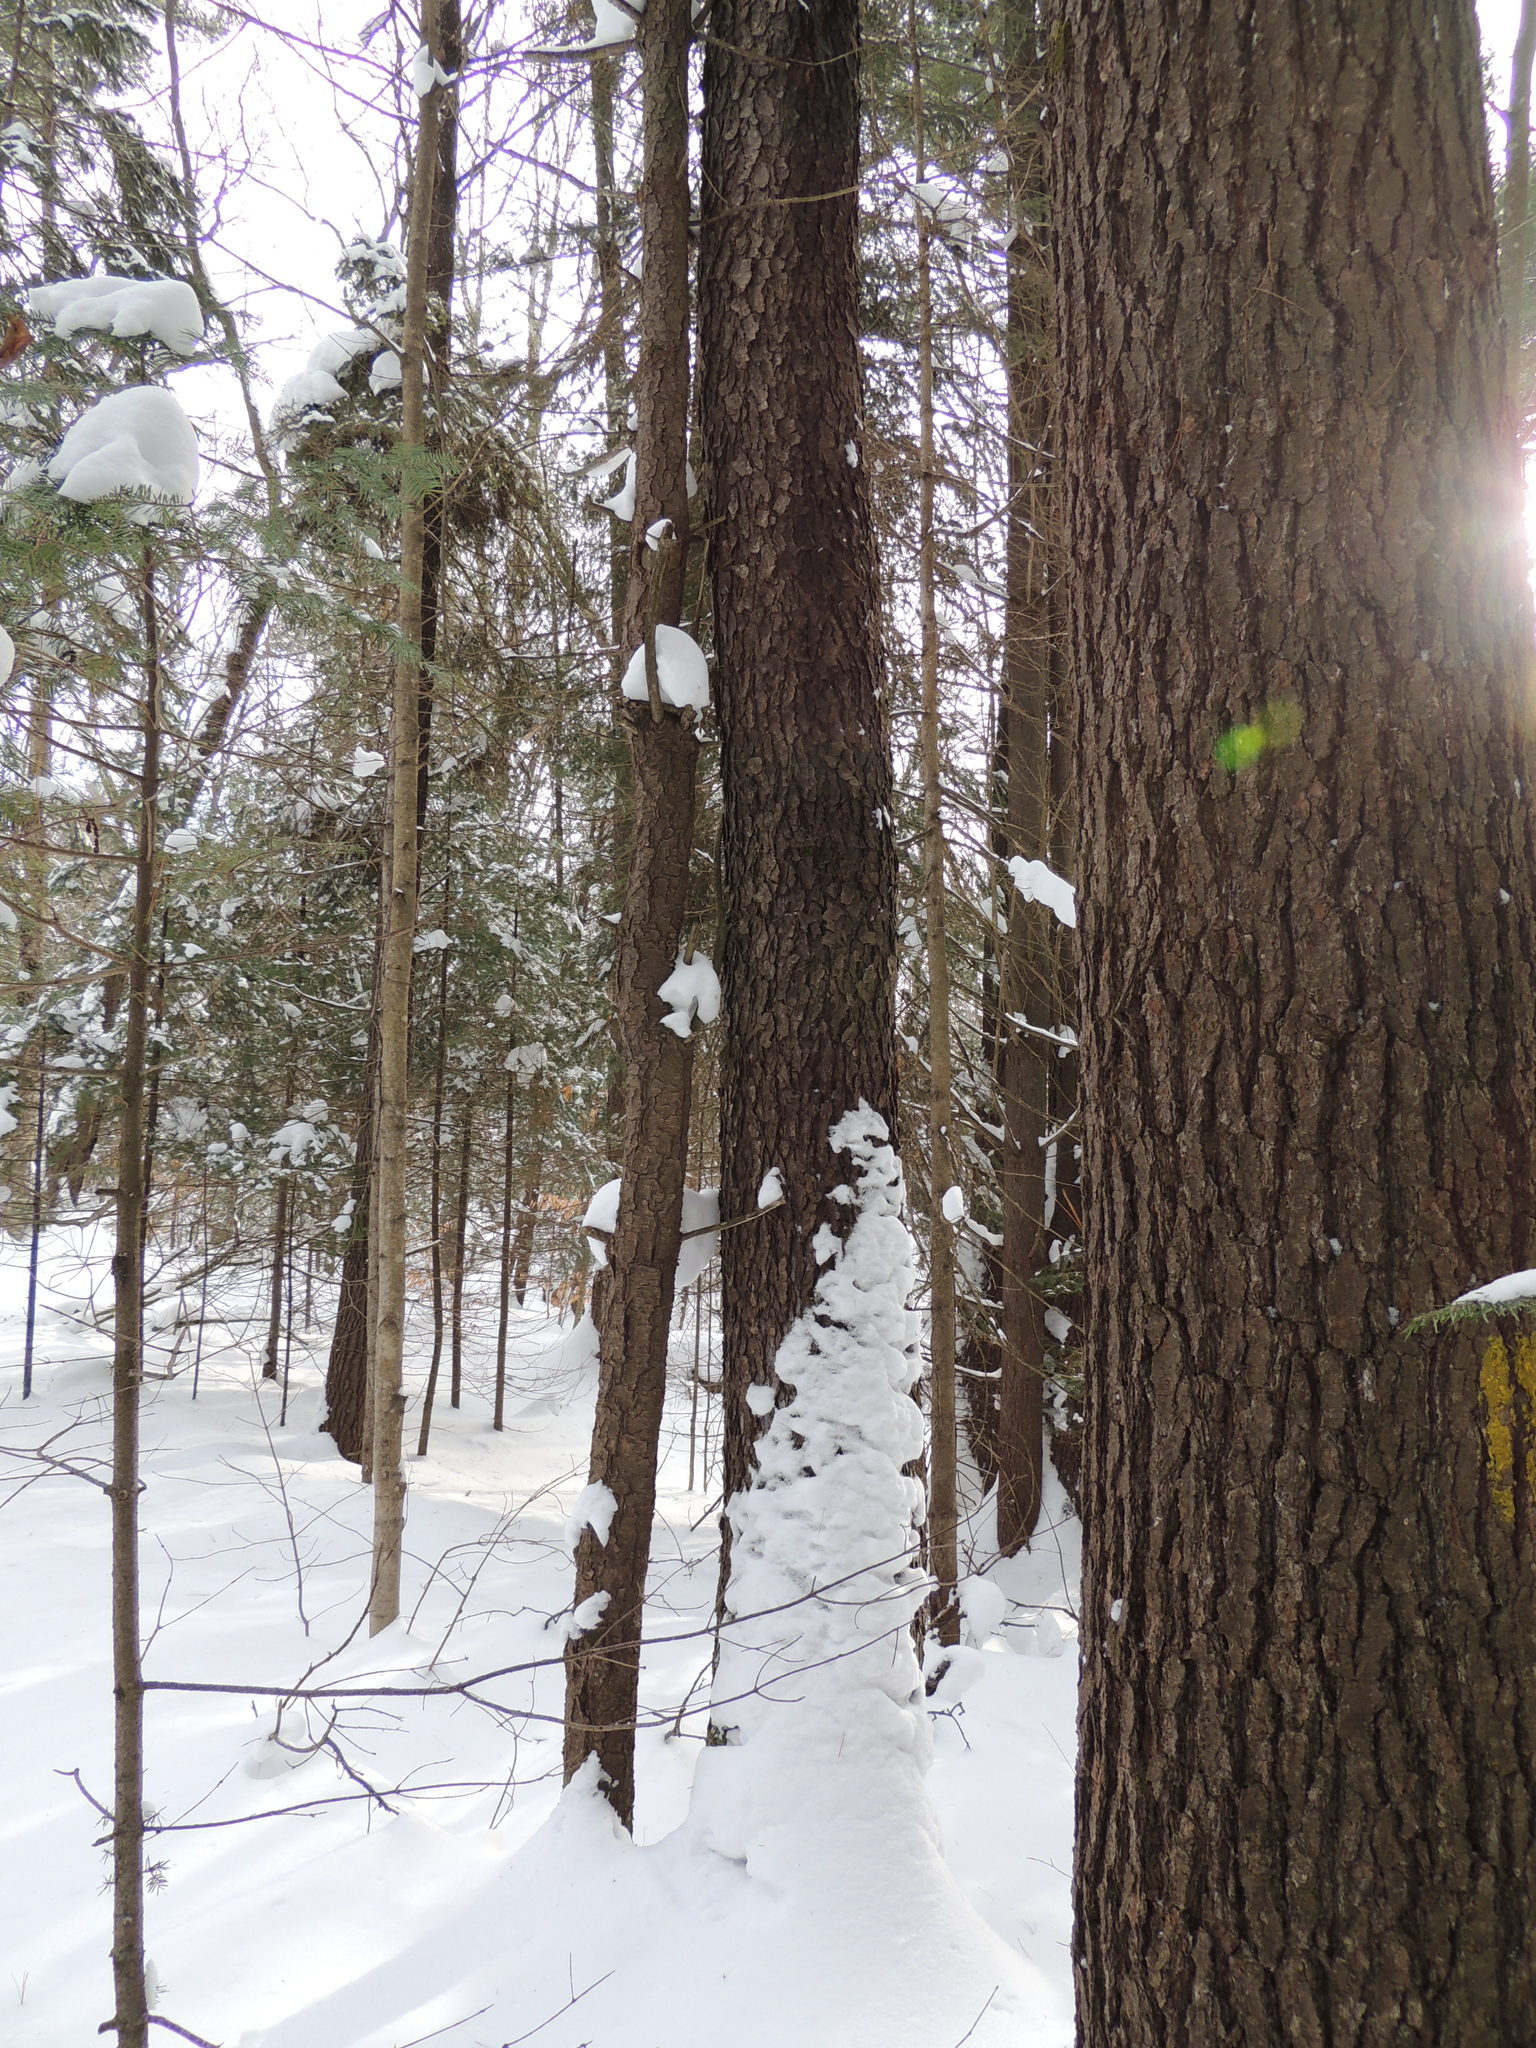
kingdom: Plantae
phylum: Tracheophyta
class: Magnoliopsida
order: Rosales
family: Rosaceae
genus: Prunus
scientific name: Prunus serotina
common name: Black cherry
